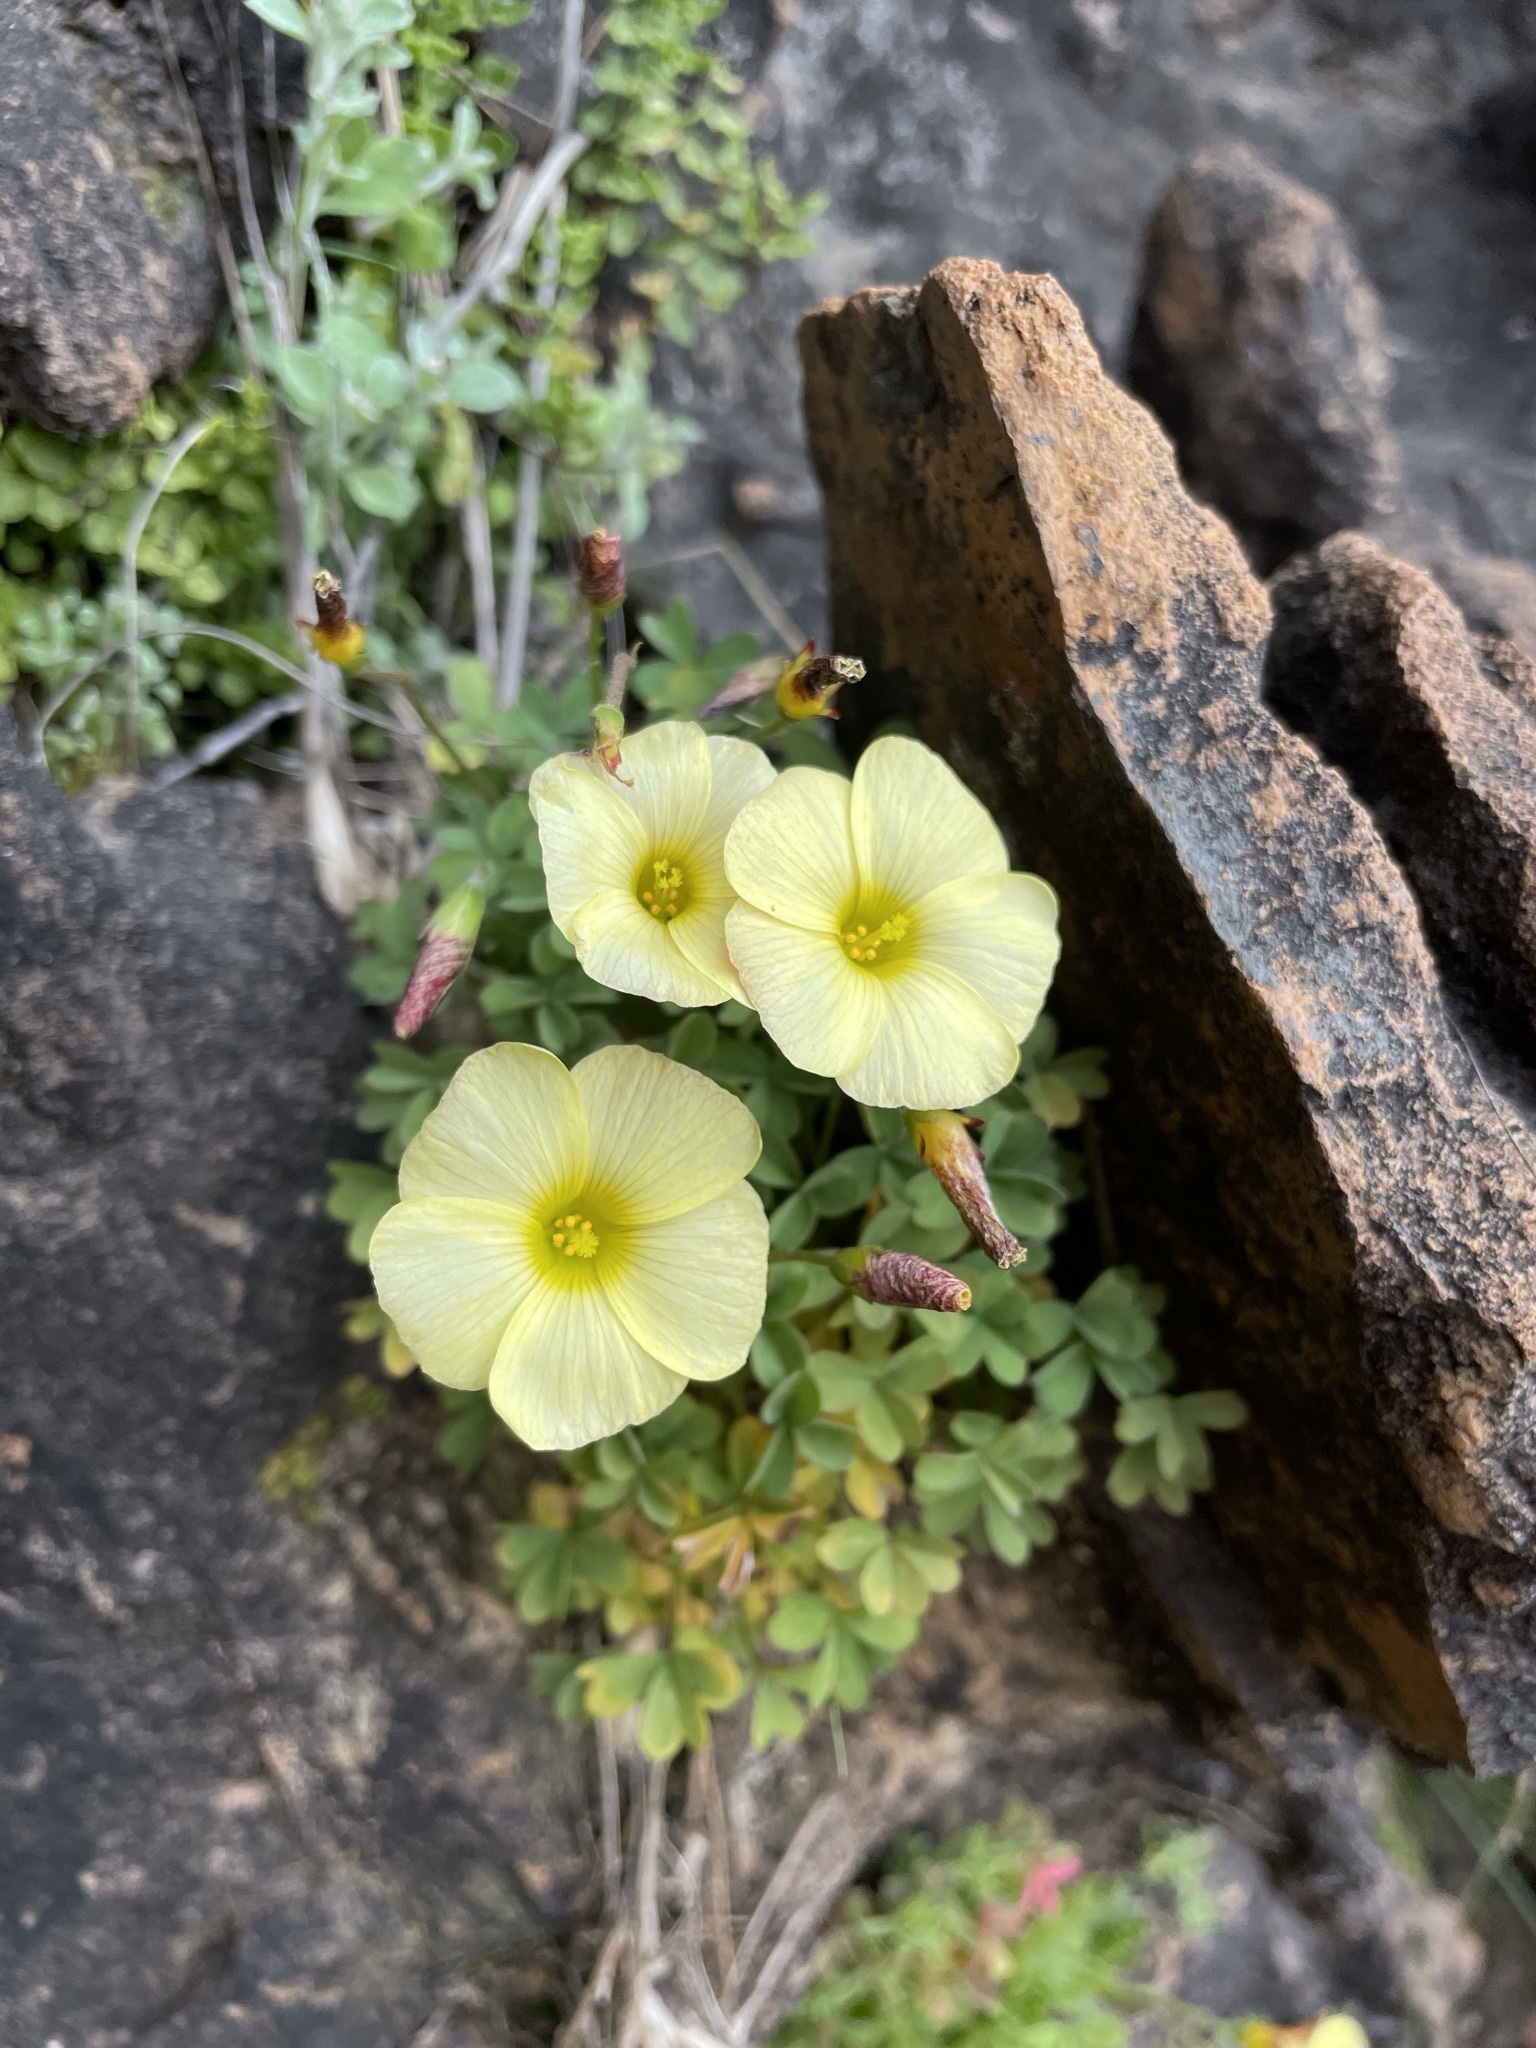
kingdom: Plantae
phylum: Tracheophyta
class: Magnoliopsida
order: Oxalidales
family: Oxalidaceae
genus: Oxalis
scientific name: Oxalis obtusa
